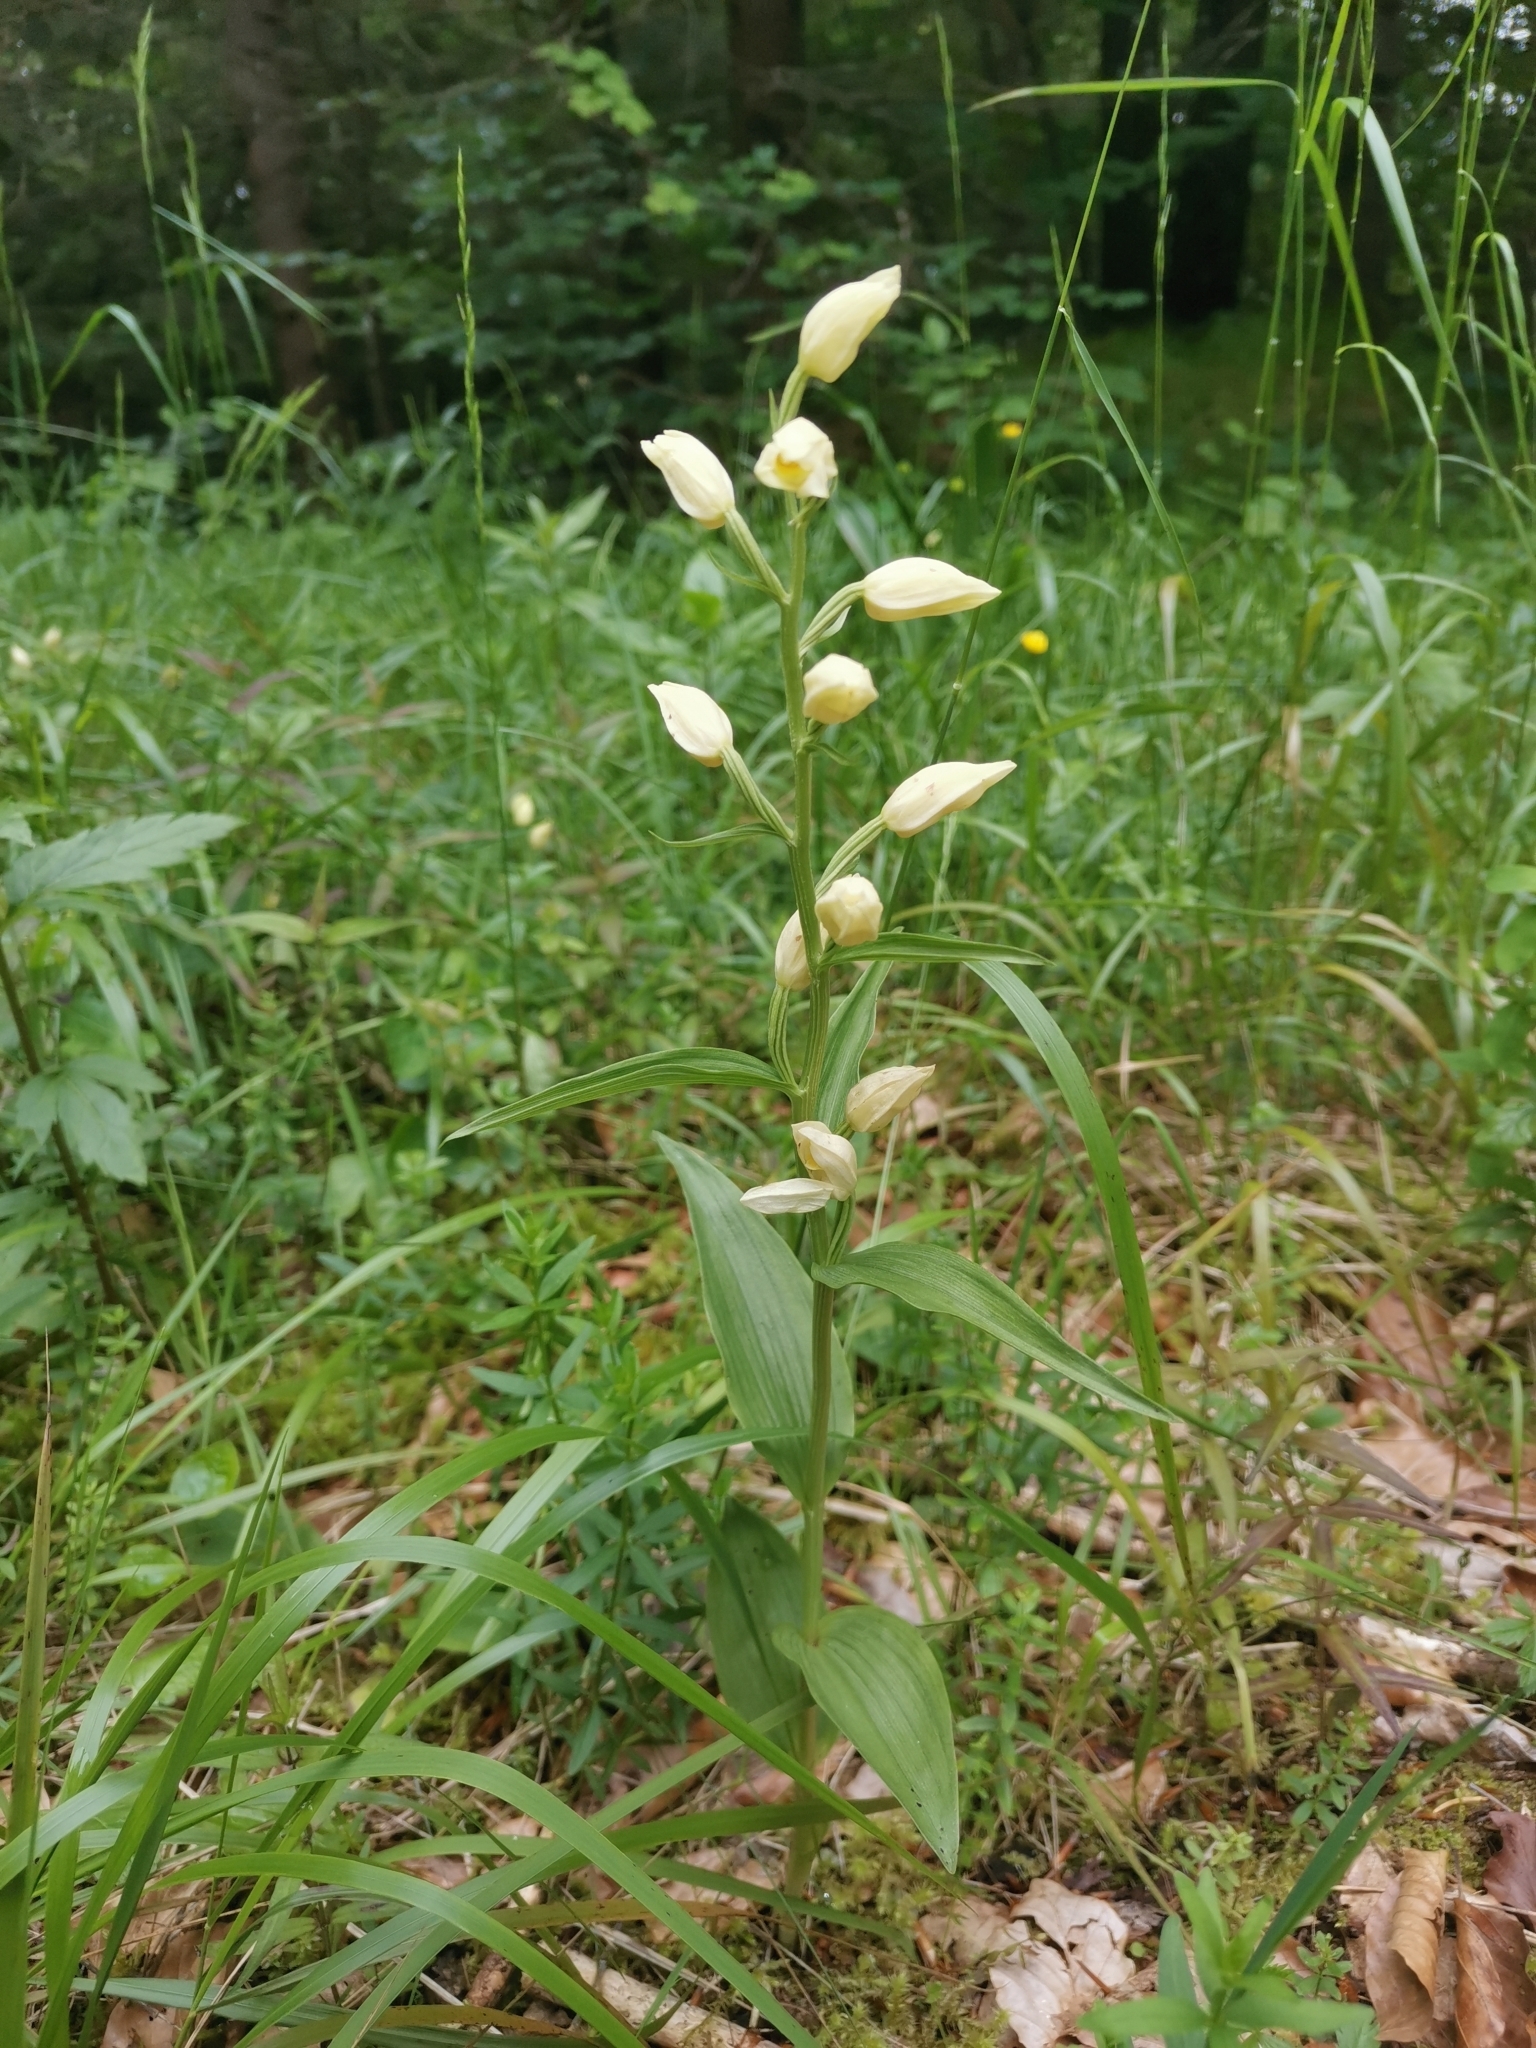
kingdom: Plantae
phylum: Tracheophyta
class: Liliopsida
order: Asparagales
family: Orchidaceae
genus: Cephalanthera
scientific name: Cephalanthera damasonium
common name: White helleborine
